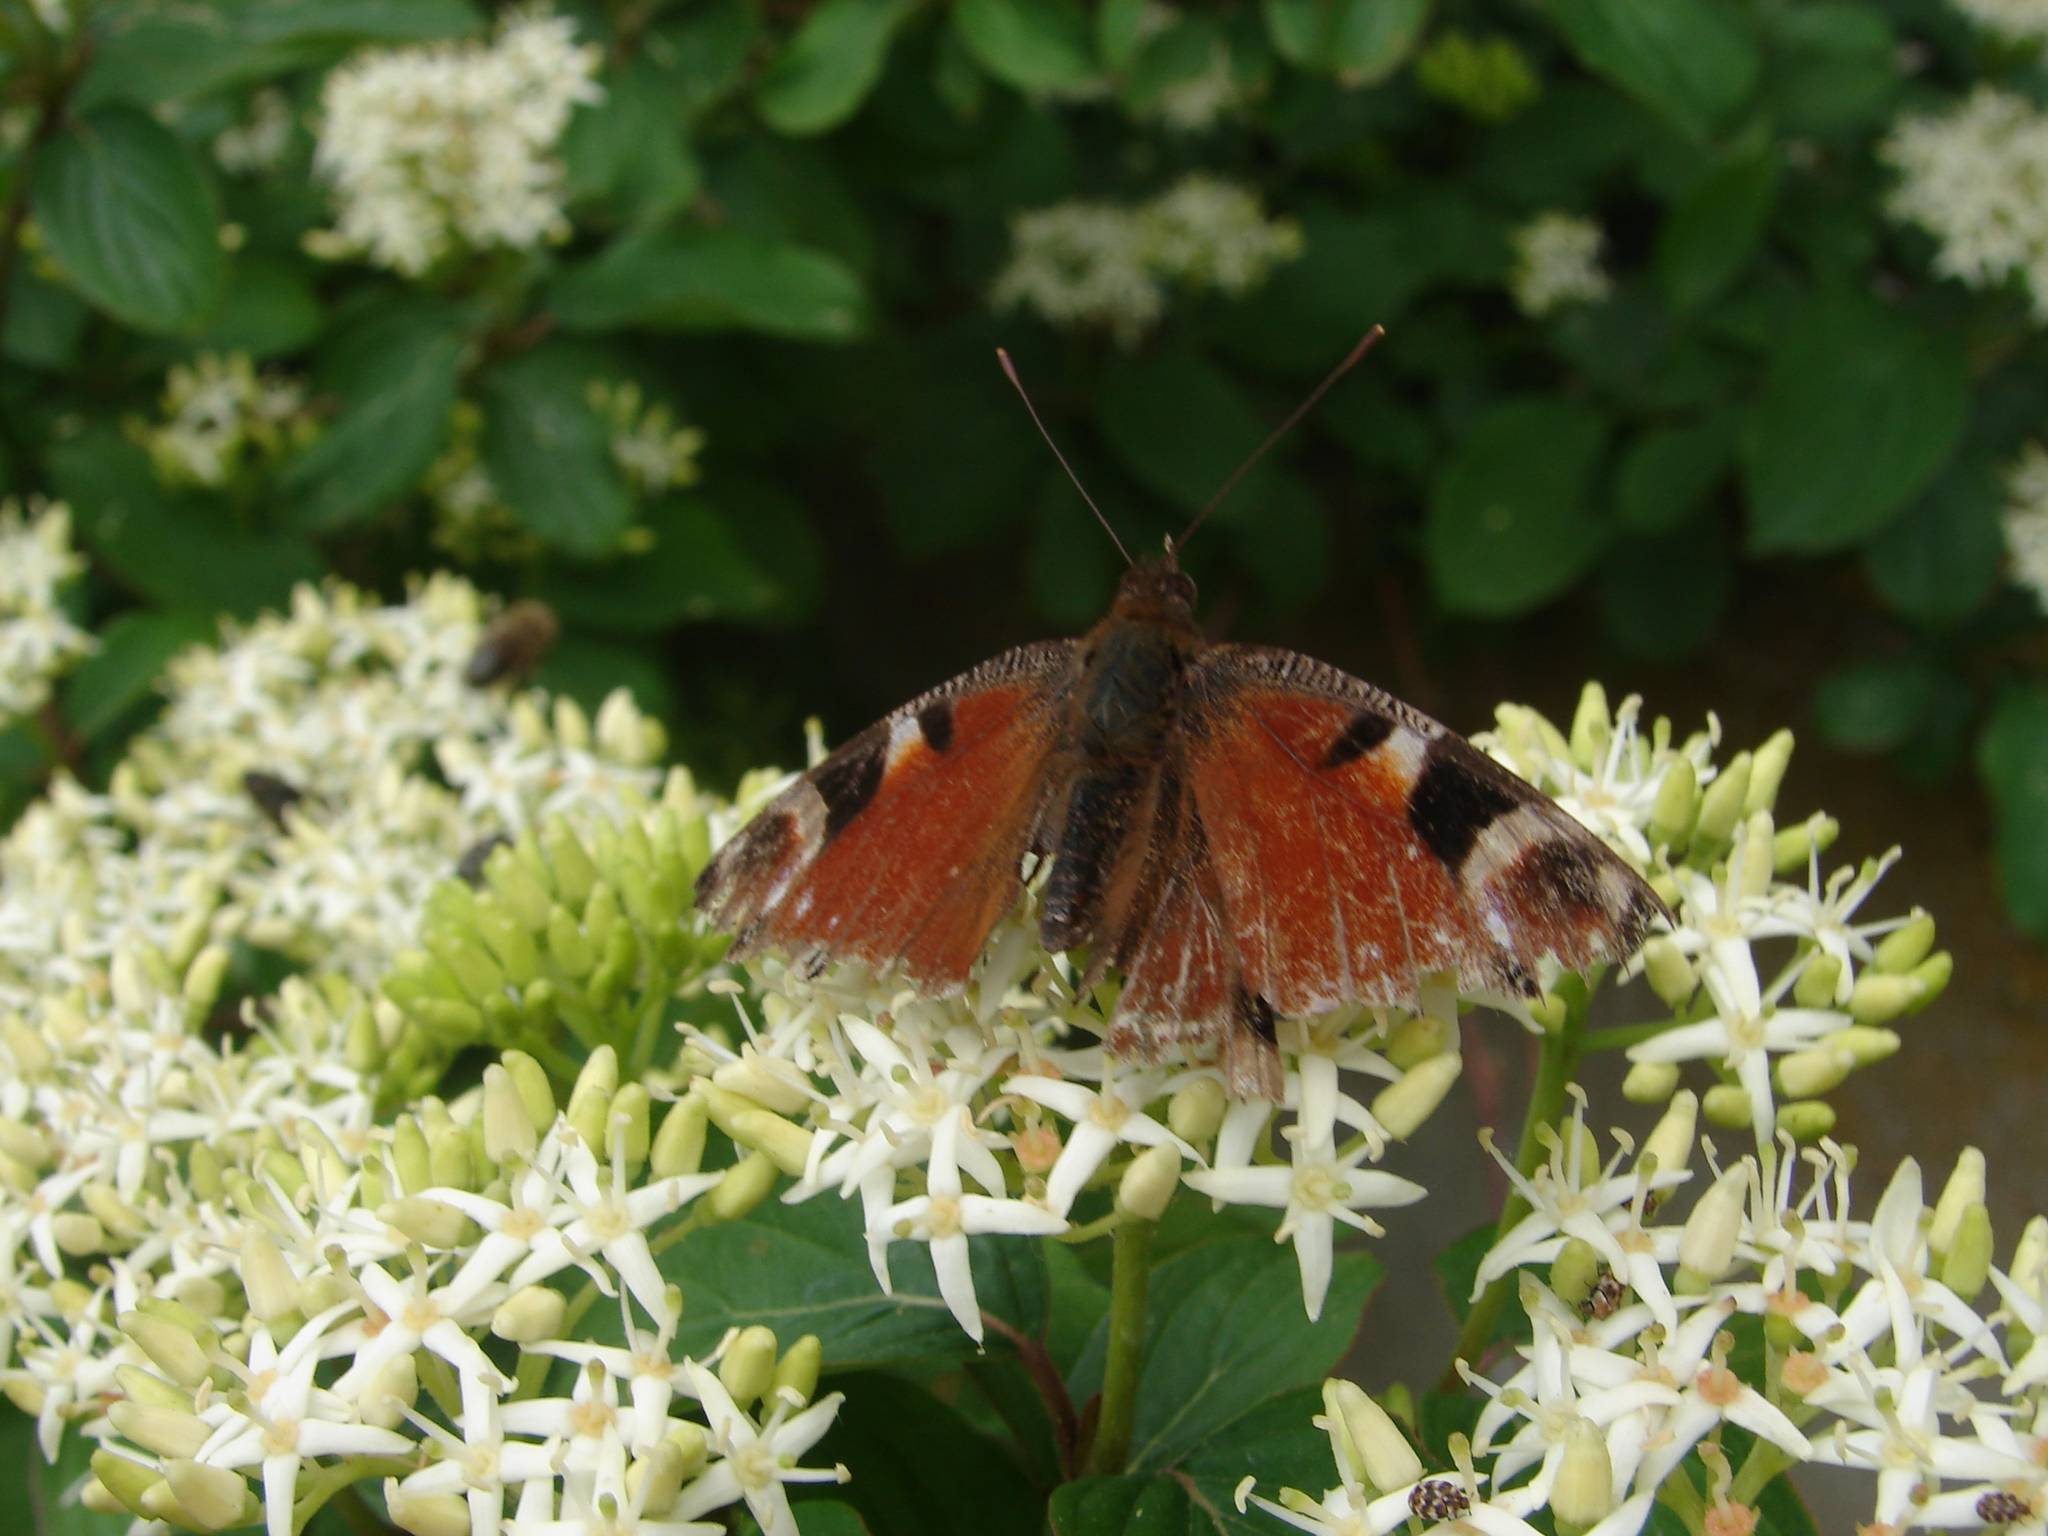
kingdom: Animalia
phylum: Arthropoda
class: Insecta
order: Lepidoptera
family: Nymphalidae
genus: Aglais
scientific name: Aglais io
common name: Peacock
